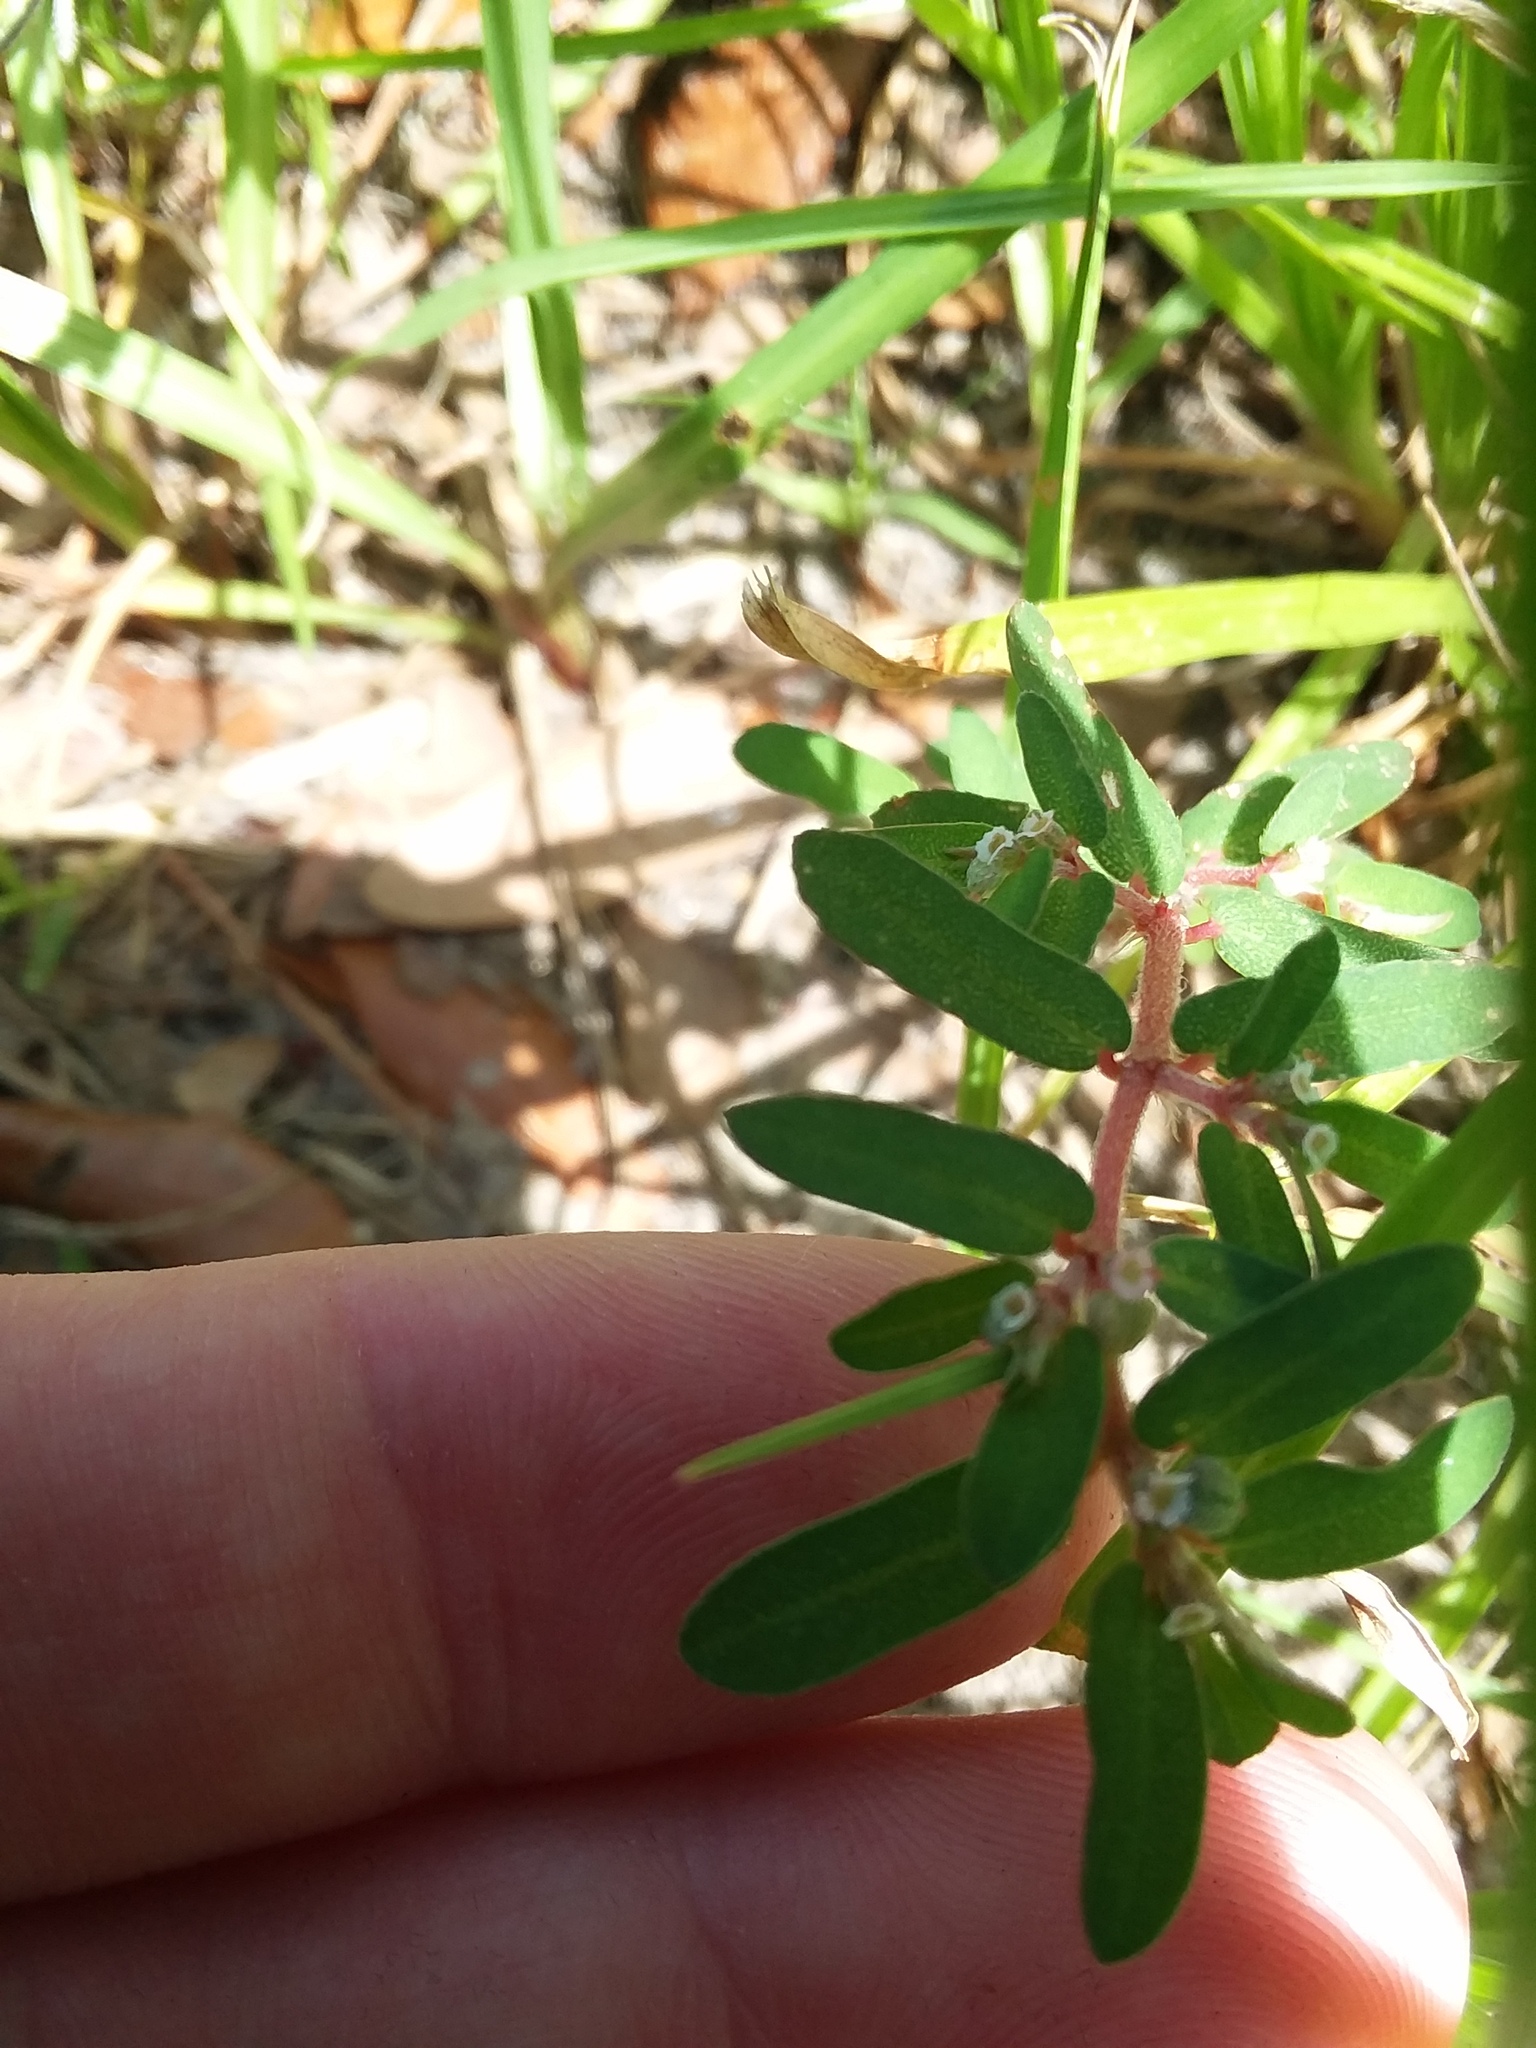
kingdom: Plantae
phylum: Tracheophyta
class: Magnoliopsida
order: Malpighiales
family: Euphorbiaceae
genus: Euphorbia
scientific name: Euphorbia maculata
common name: Spotted spurge
